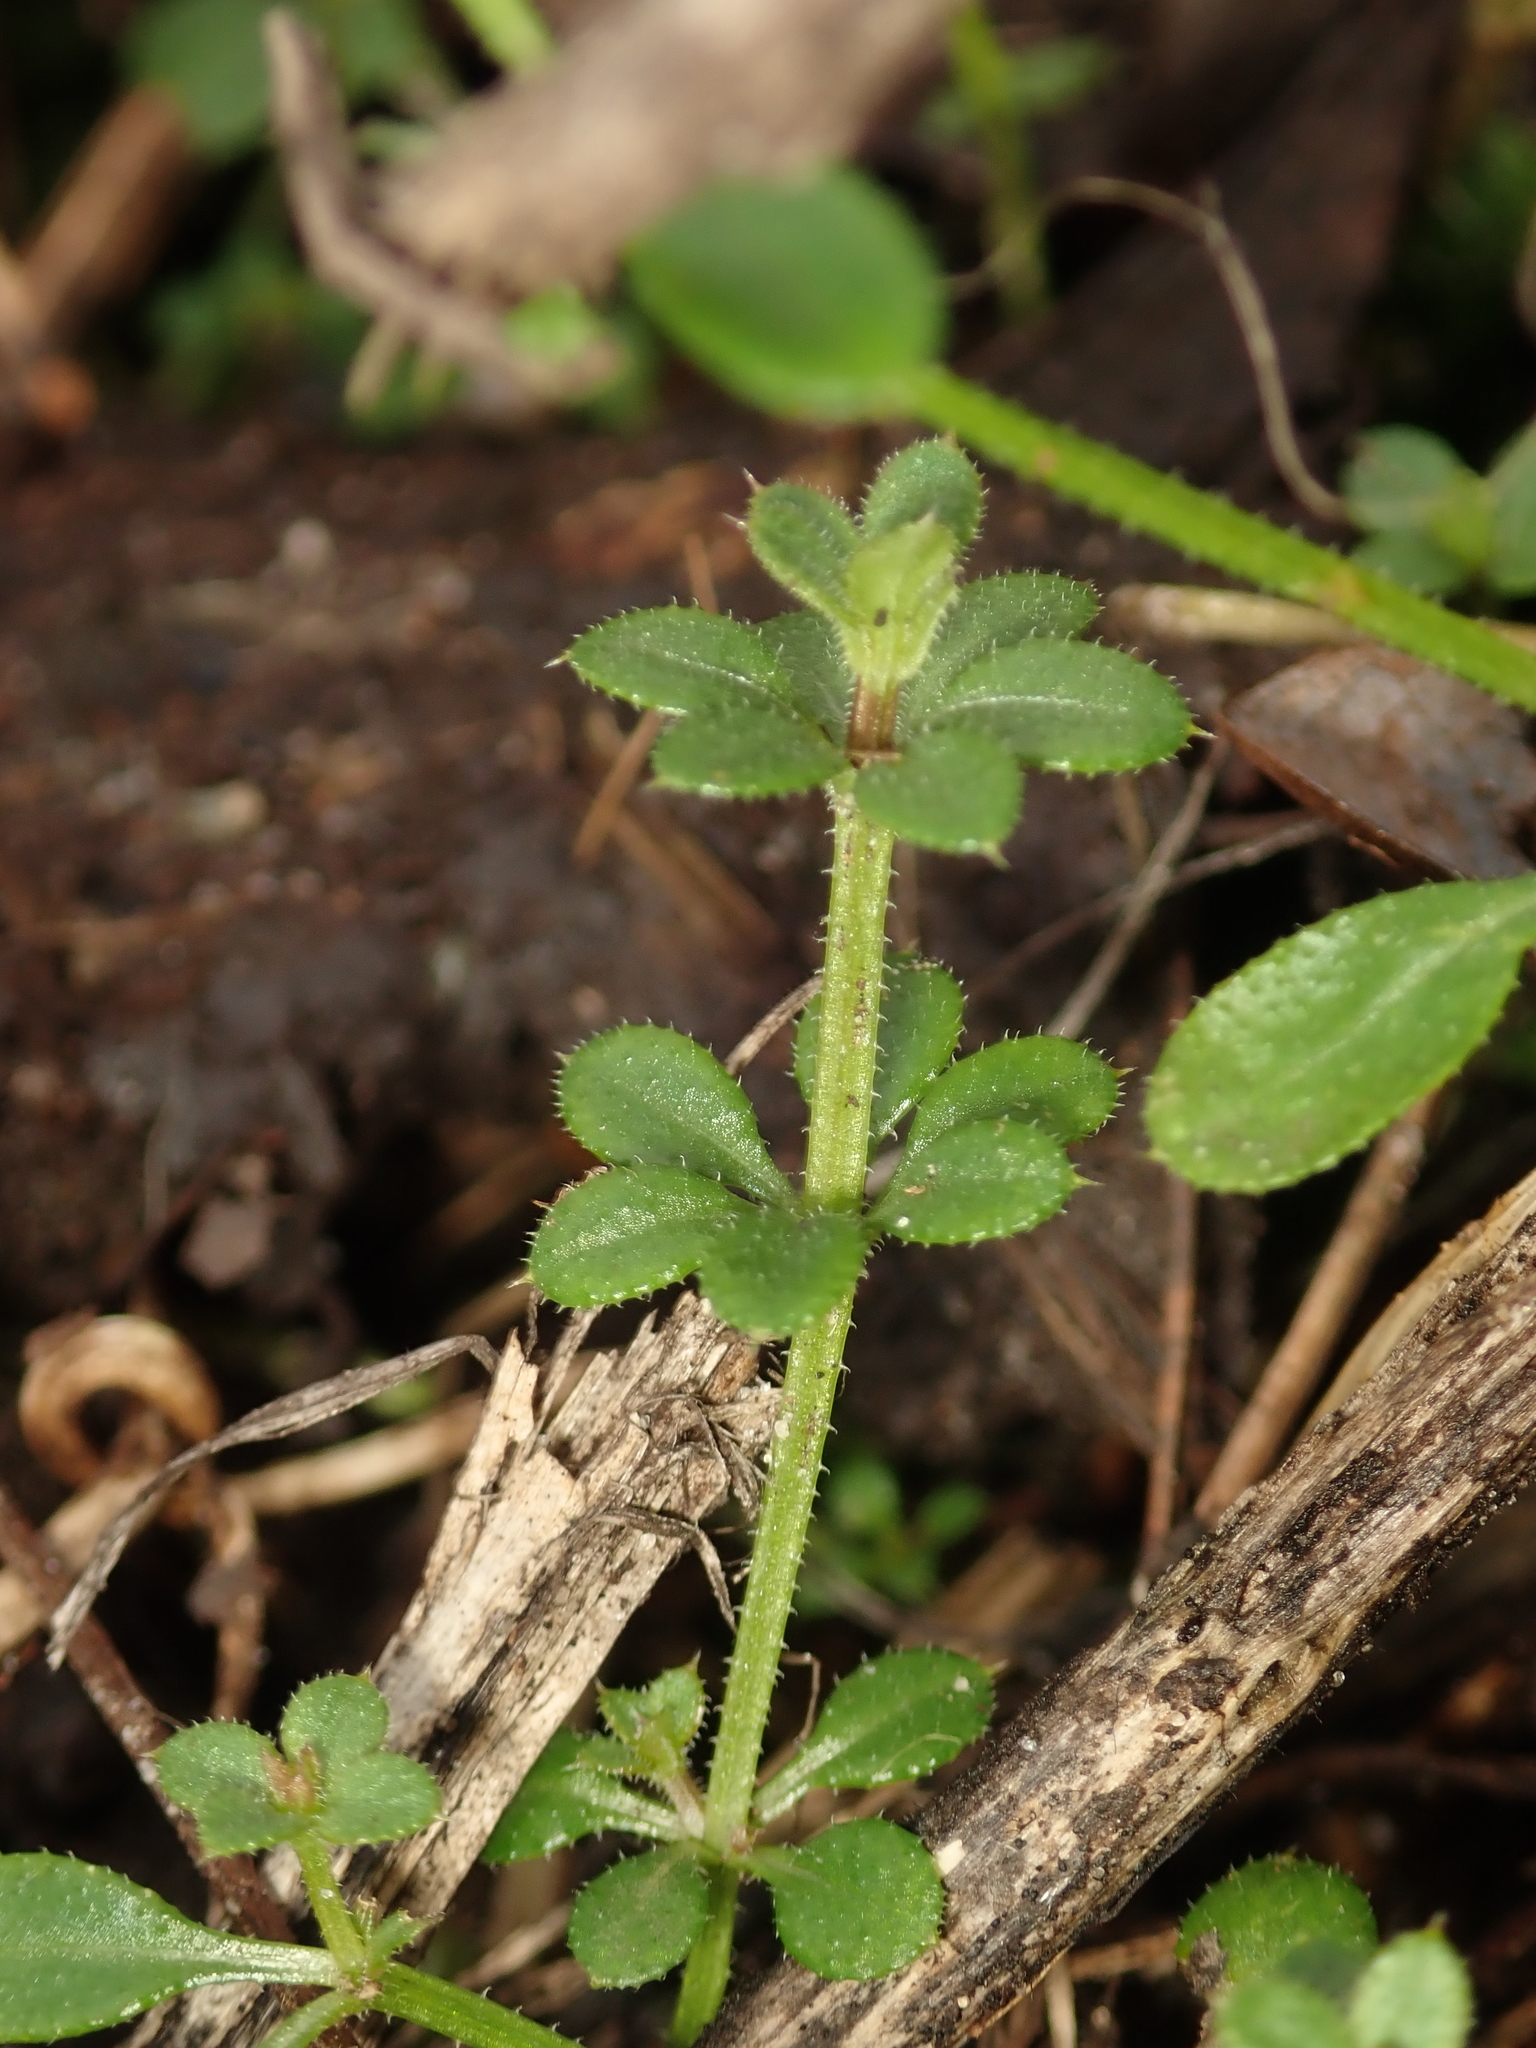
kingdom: Plantae
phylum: Tracheophyta
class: Magnoliopsida
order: Gentianales
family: Rubiaceae
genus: Galium
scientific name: Galium aparine
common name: Cleavers
